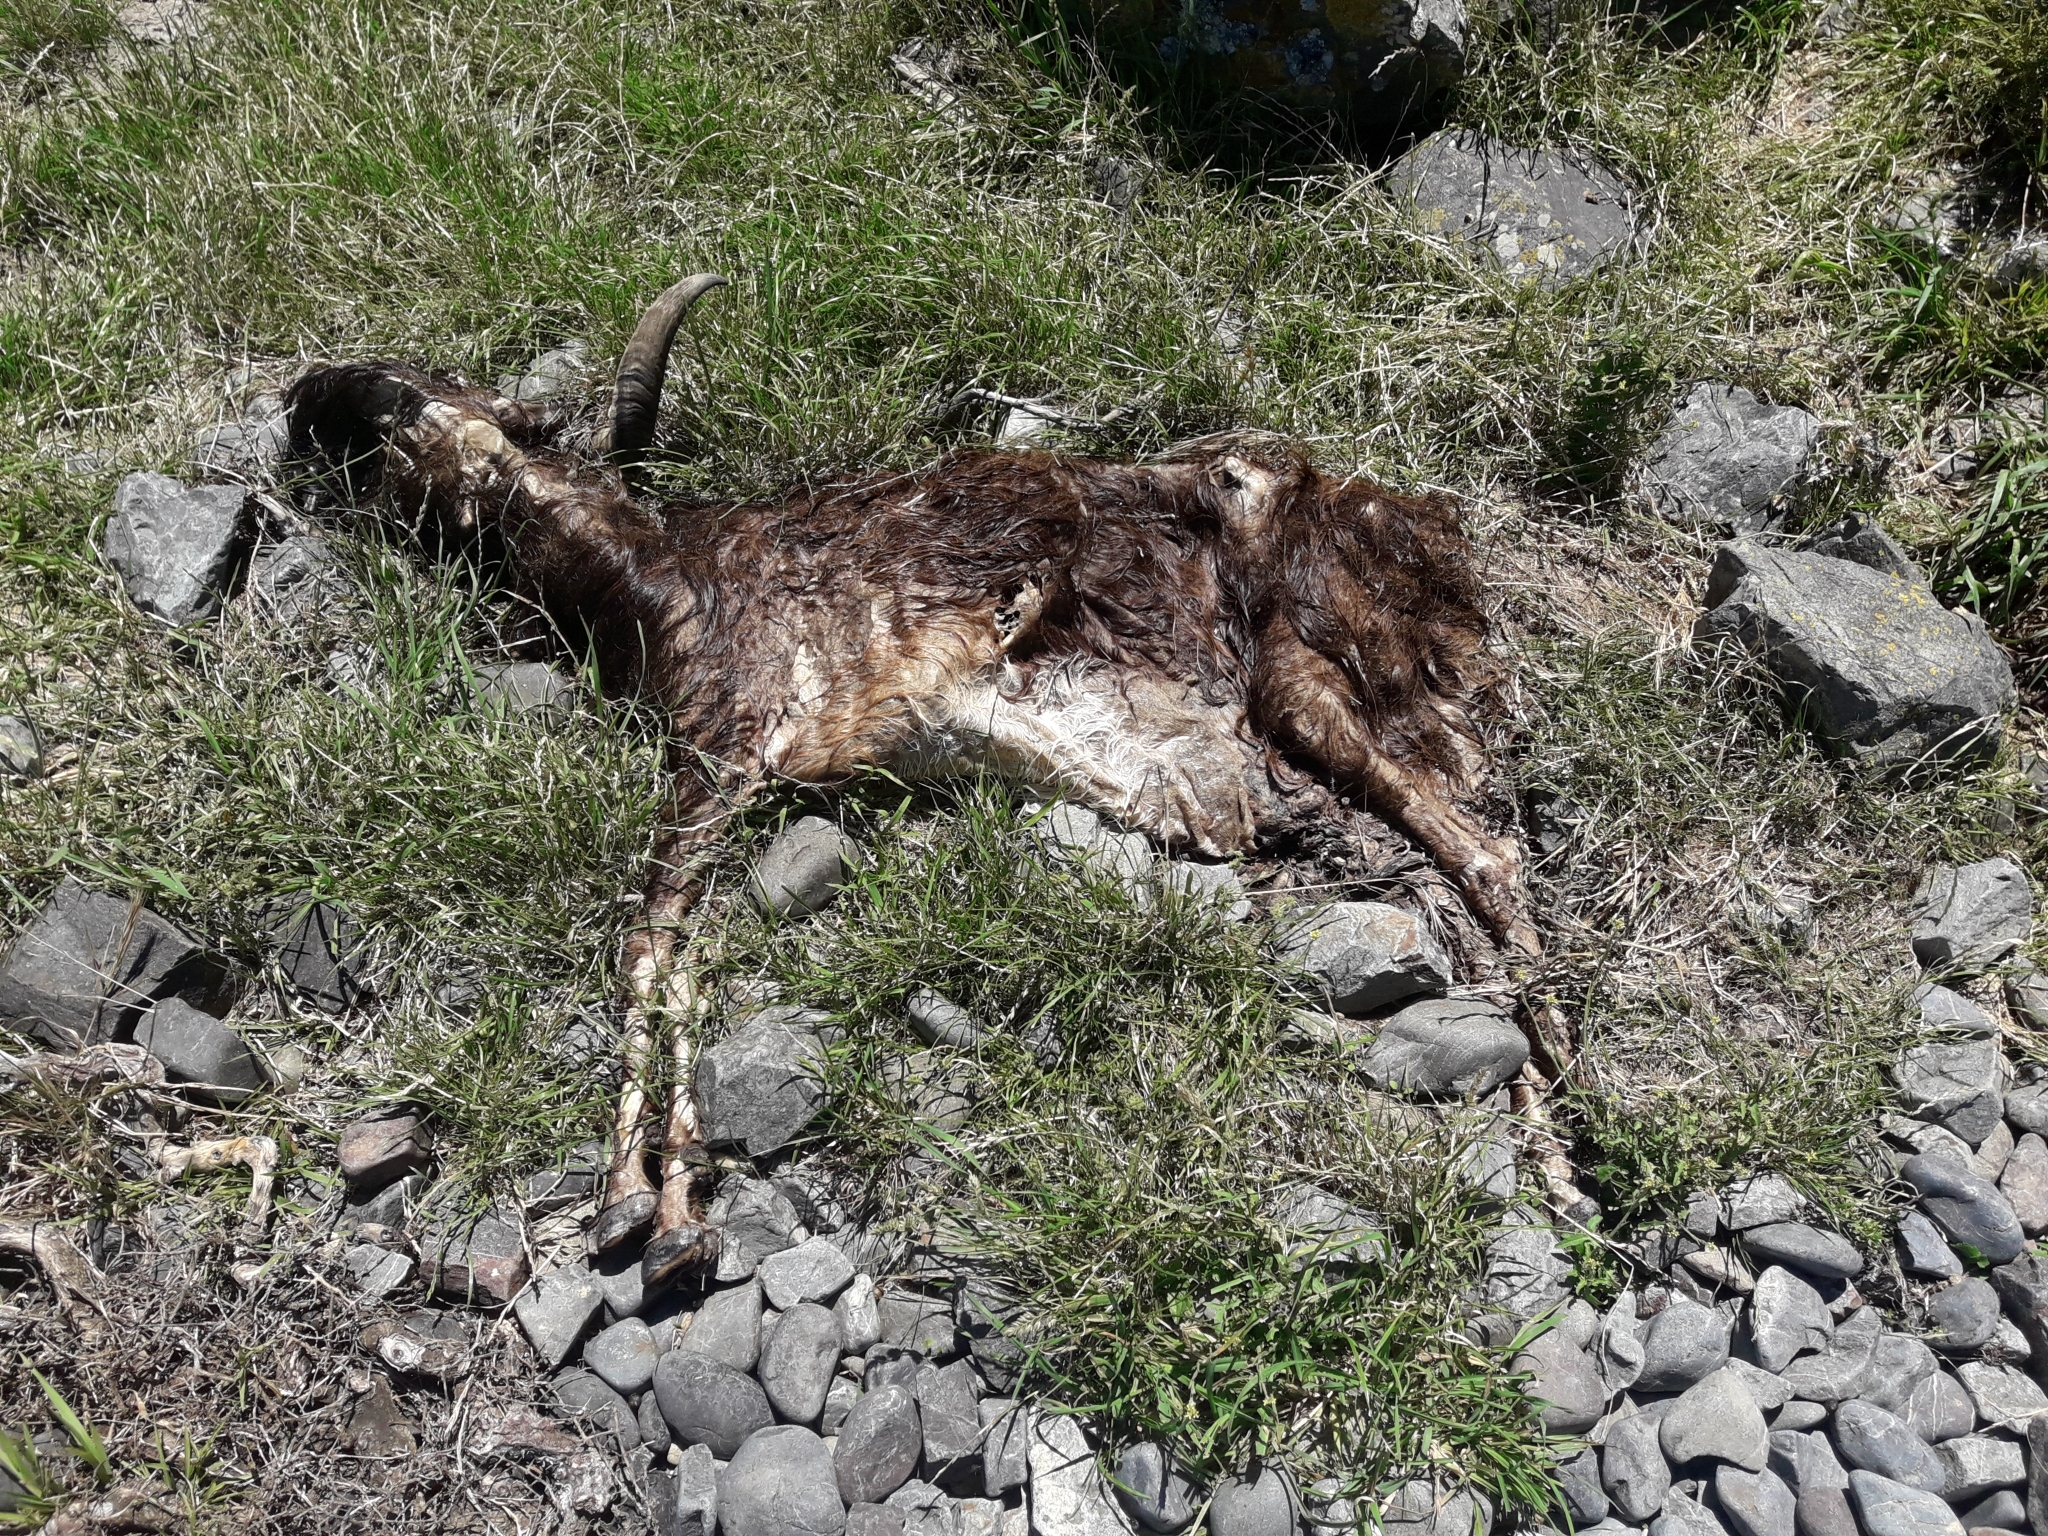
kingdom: Animalia
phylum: Chordata
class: Mammalia
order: Artiodactyla
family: Bovidae
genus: Capra
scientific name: Capra hircus
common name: Domestic goat
